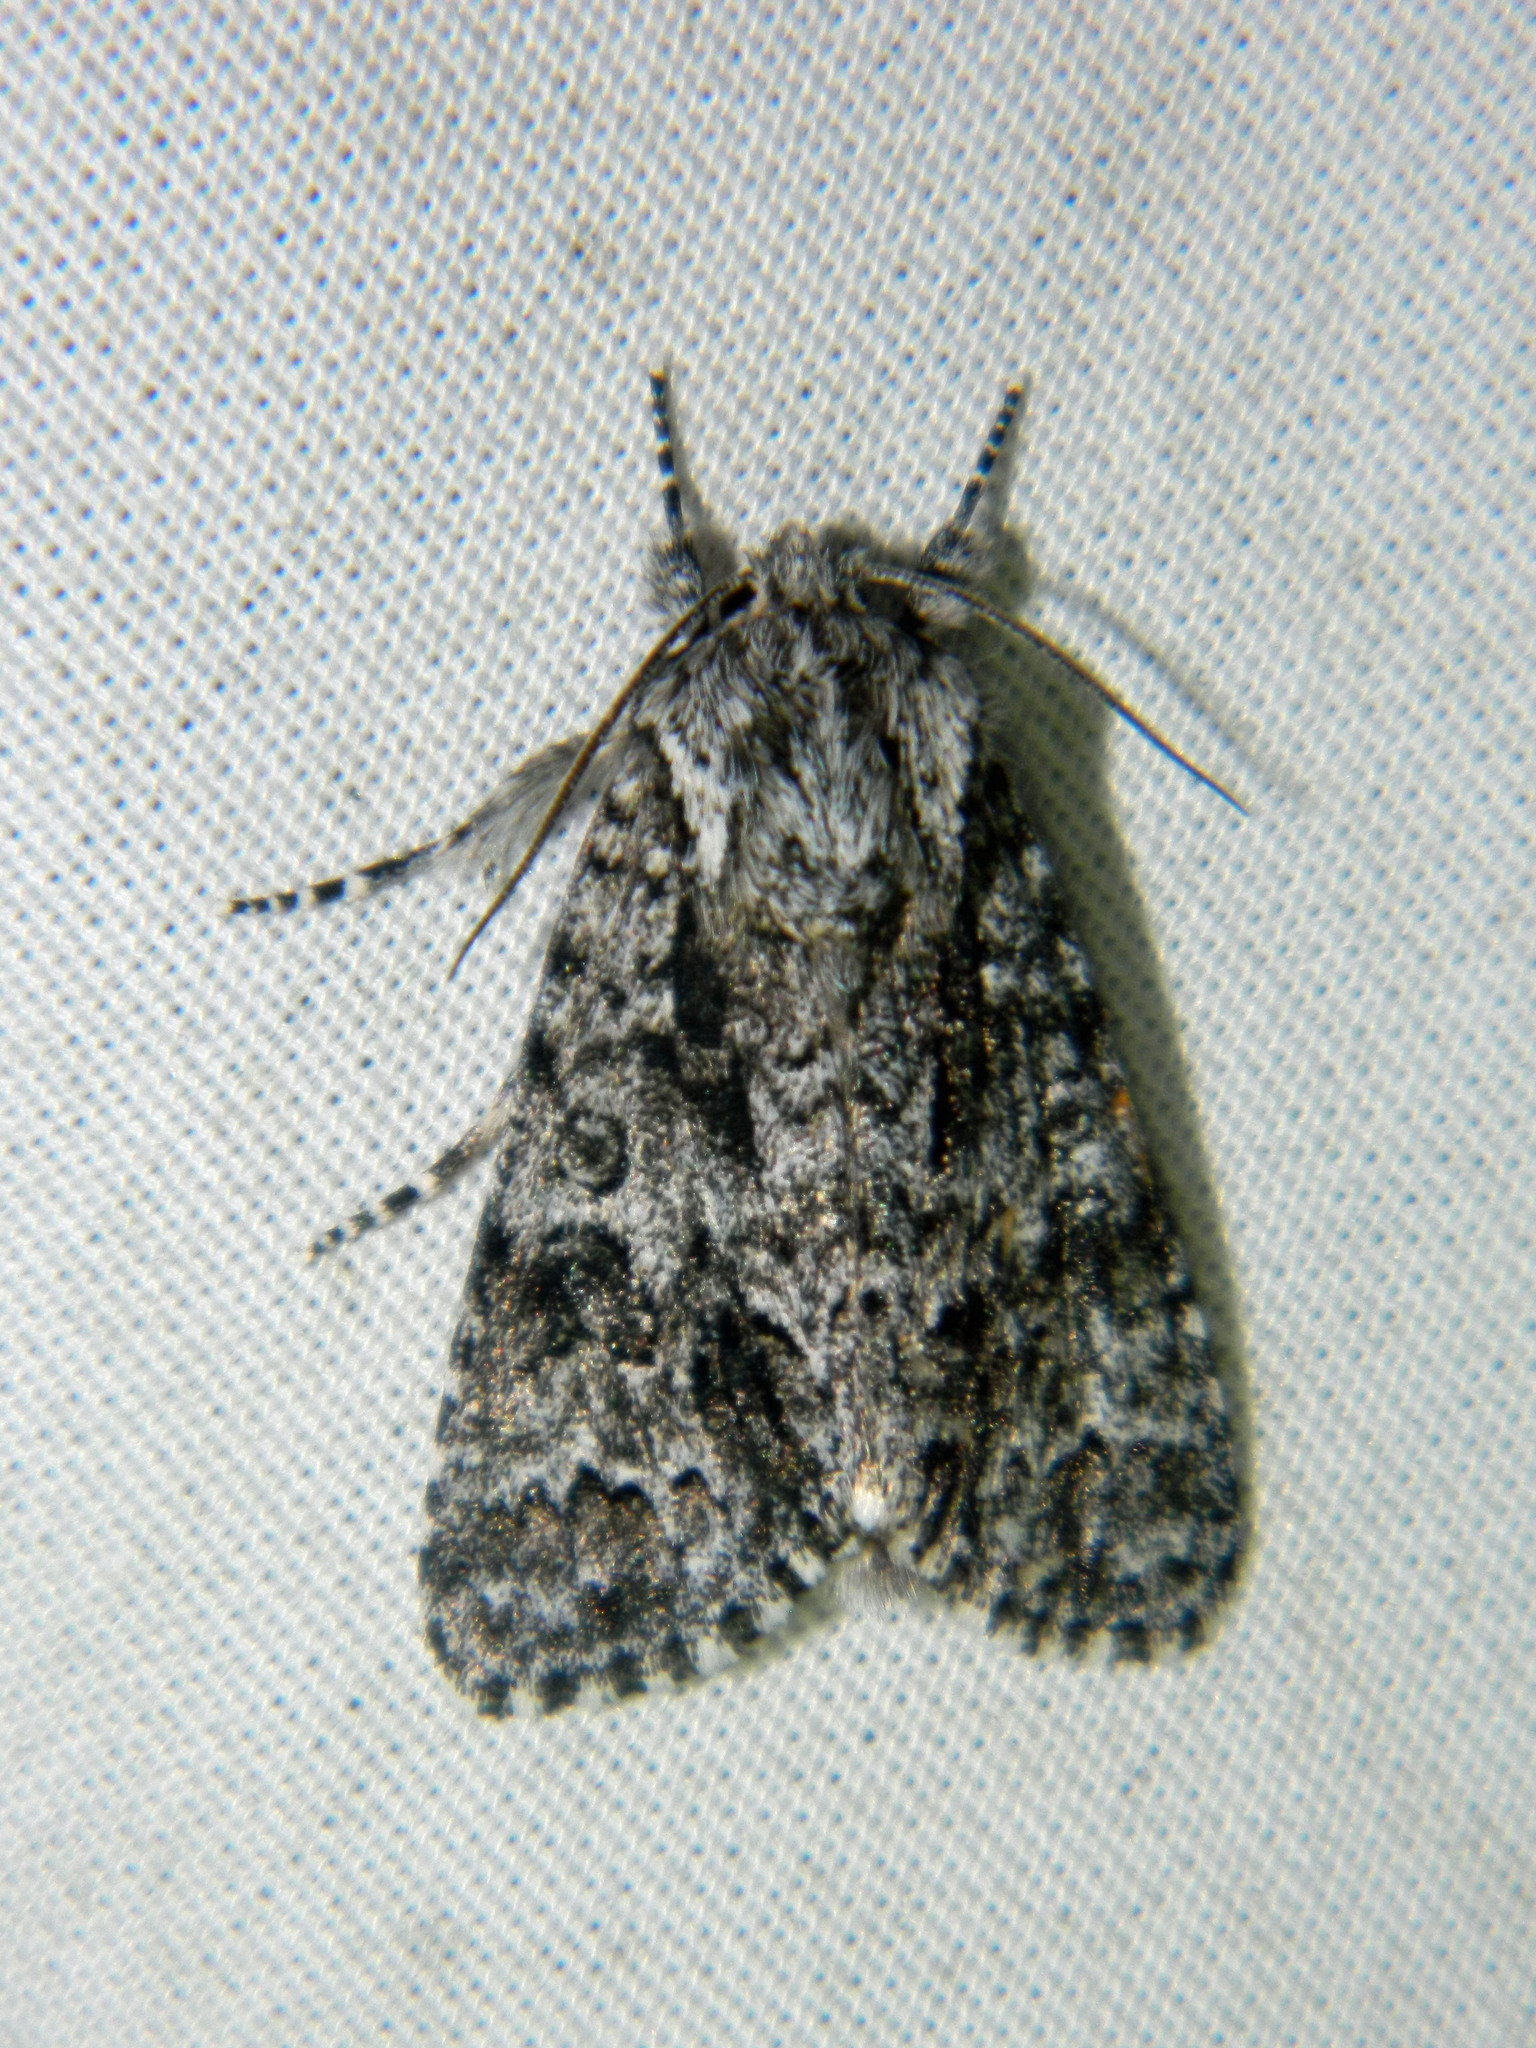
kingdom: Animalia
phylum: Arthropoda
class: Insecta
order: Lepidoptera
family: Noctuidae
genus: Acronicta
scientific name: Acronicta impressa
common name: Impressed dagger
